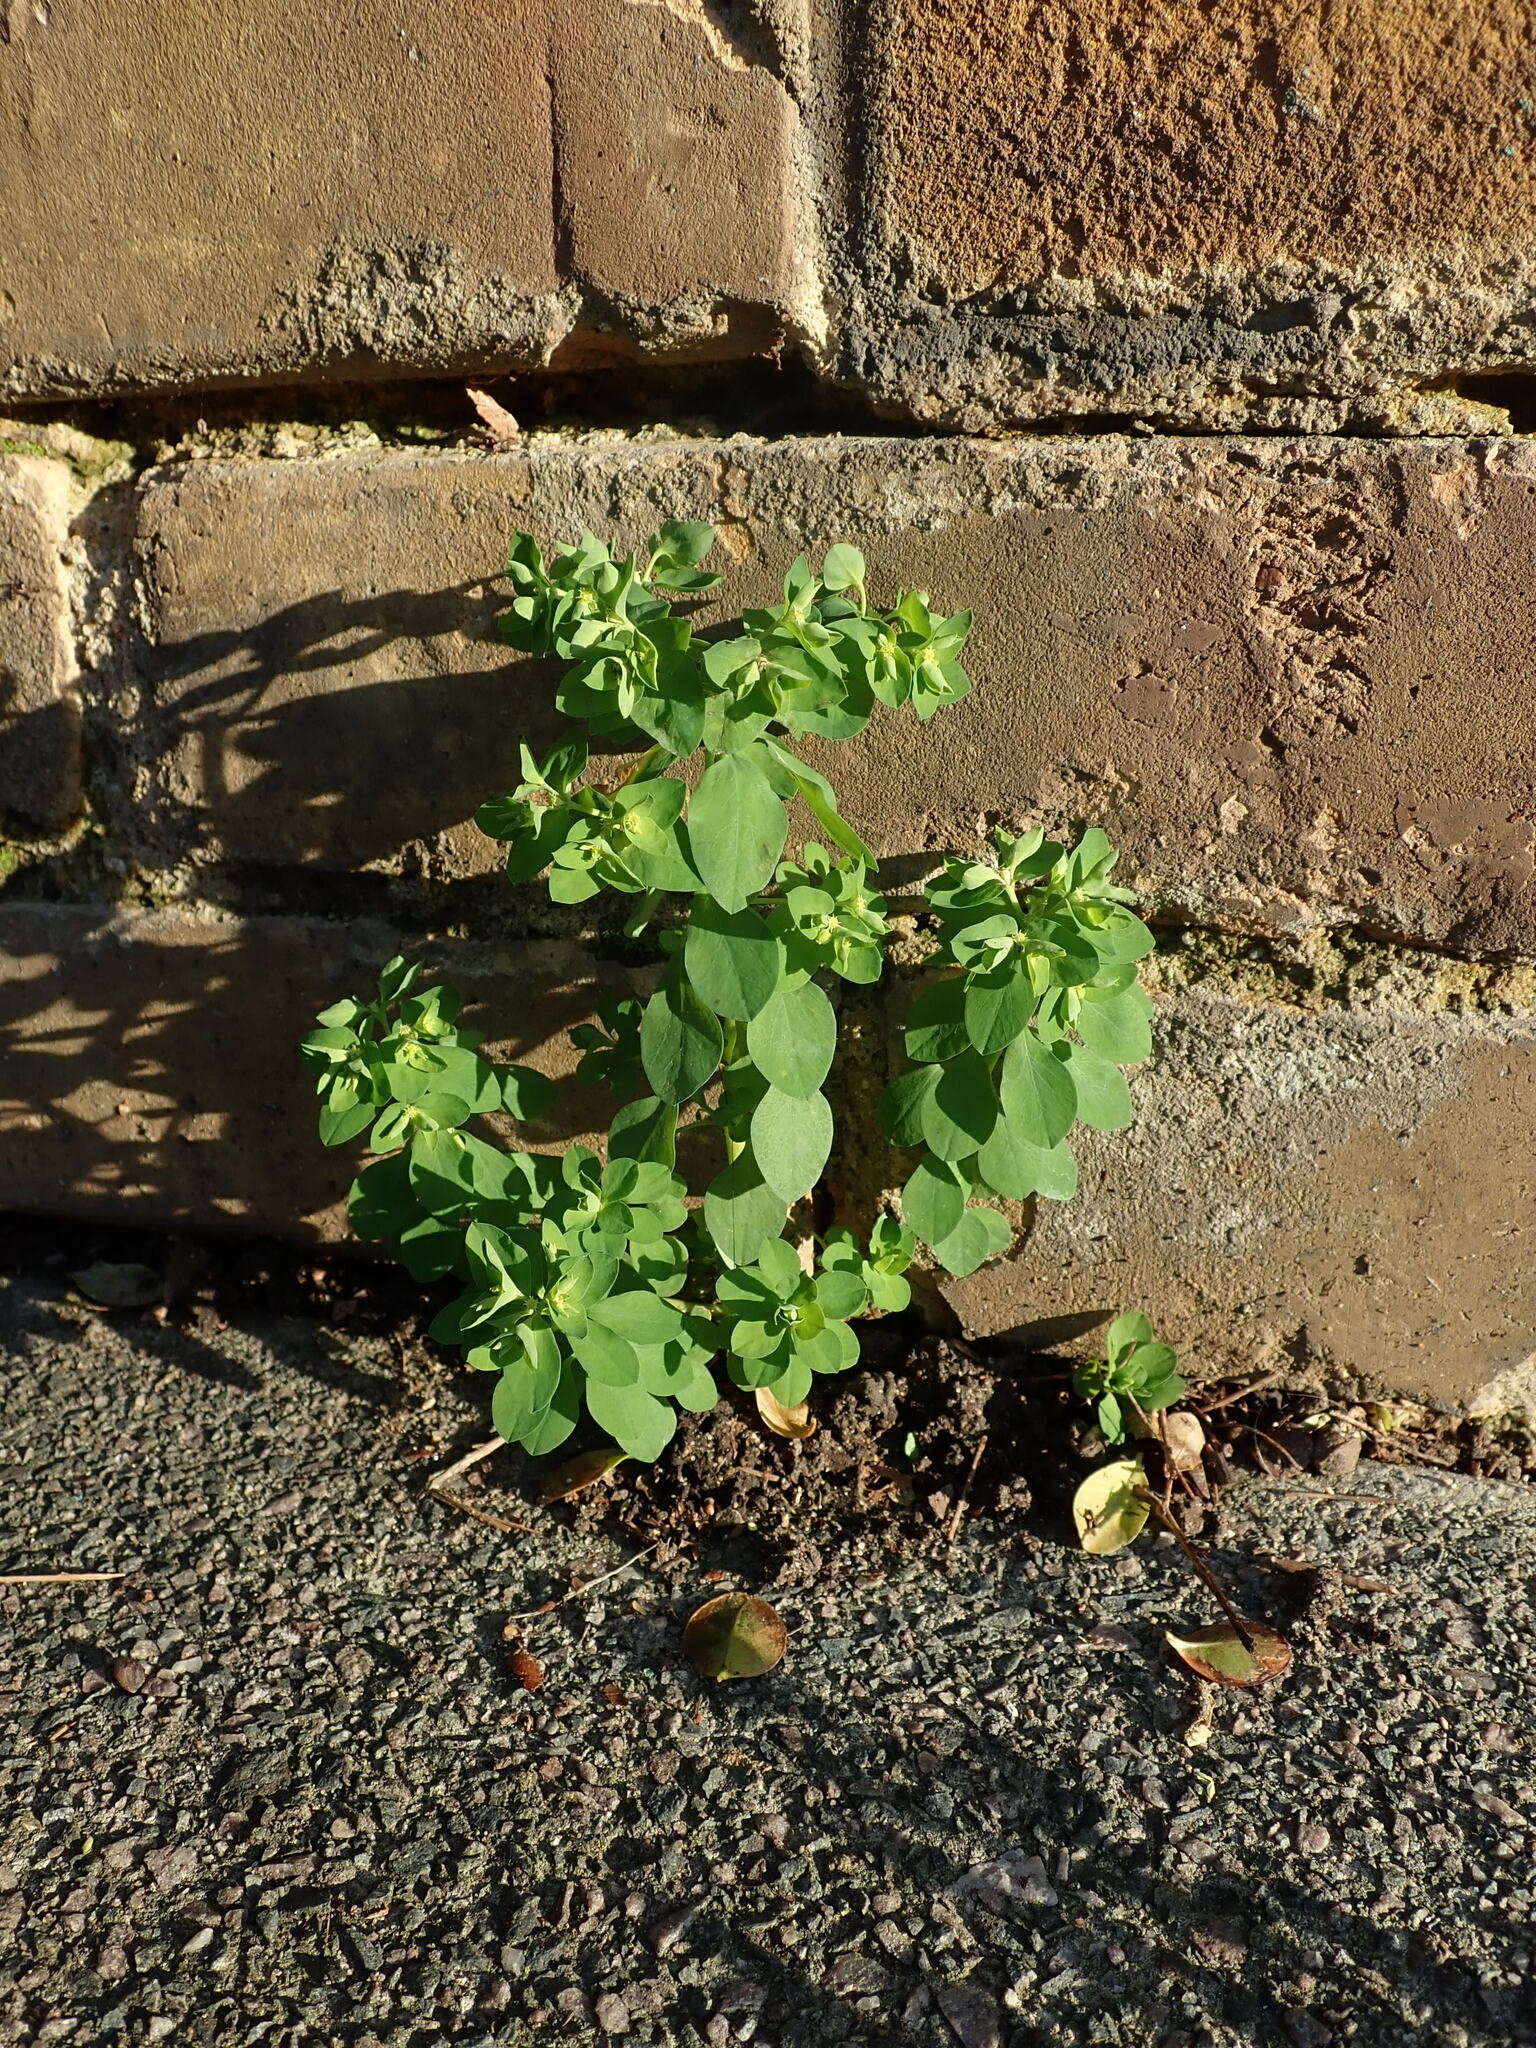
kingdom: Plantae
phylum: Tracheophyta
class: Magnoliopsida
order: Malpighiales
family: Euphorbiaceae
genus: Euphorbia
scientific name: Euphorbia peplus
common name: Petty spurge
